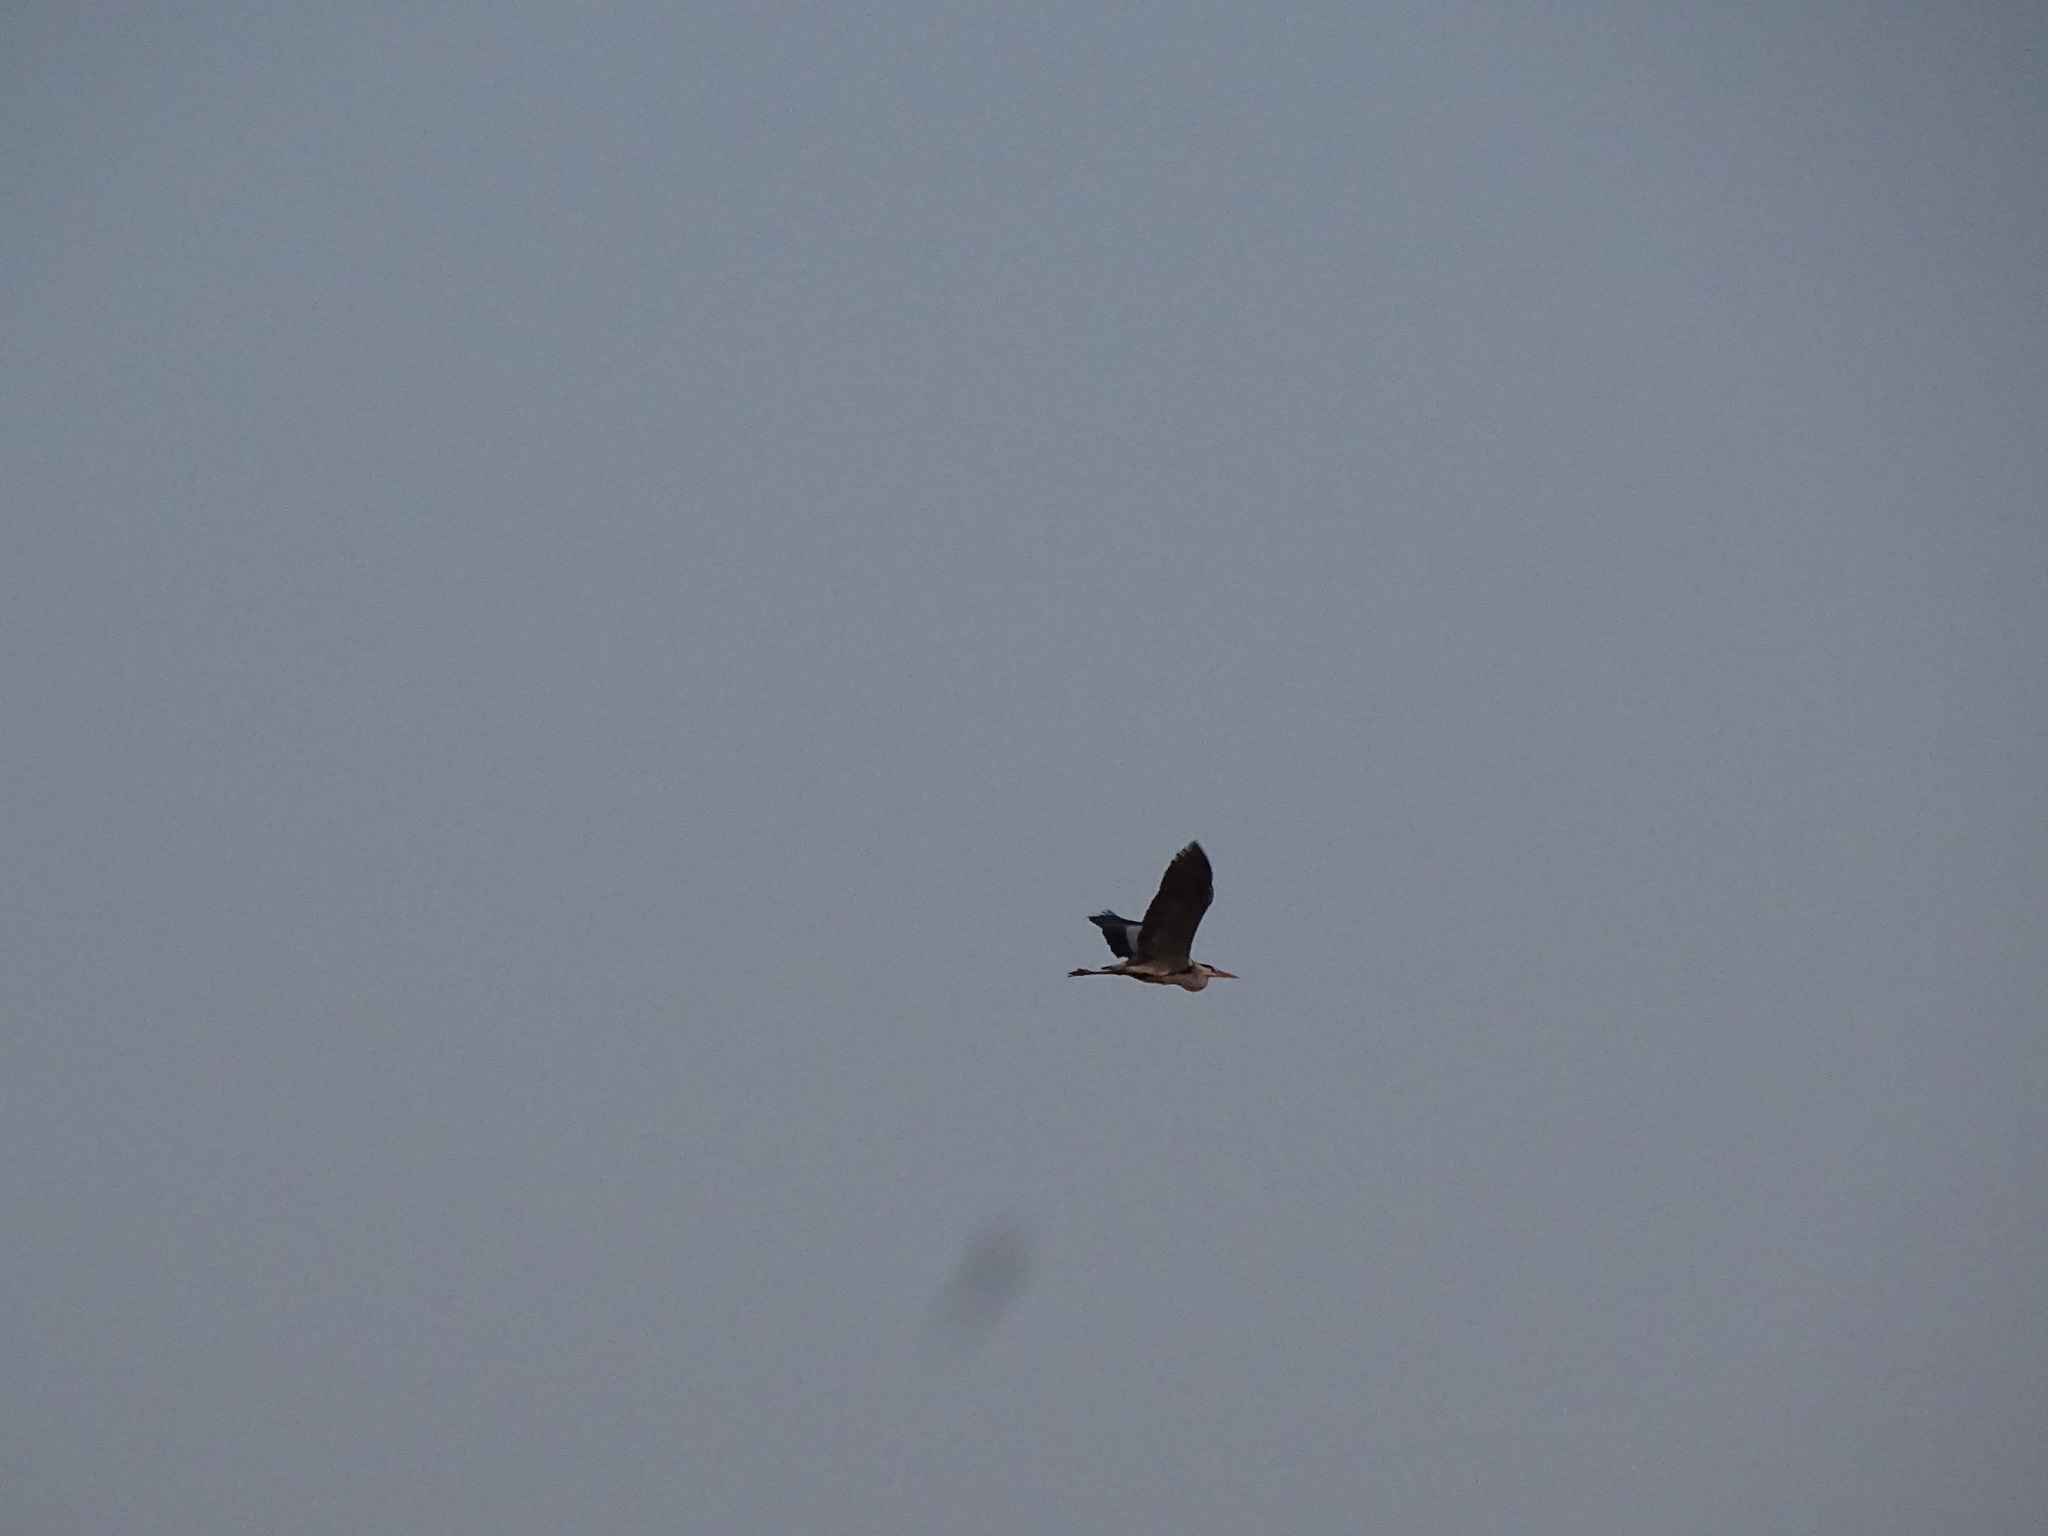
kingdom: Animalia
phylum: Chordata
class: Aves
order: Pelecaniformes
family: Ardeidae
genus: Ardea
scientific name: Ardea cinerea
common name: Grey heron
